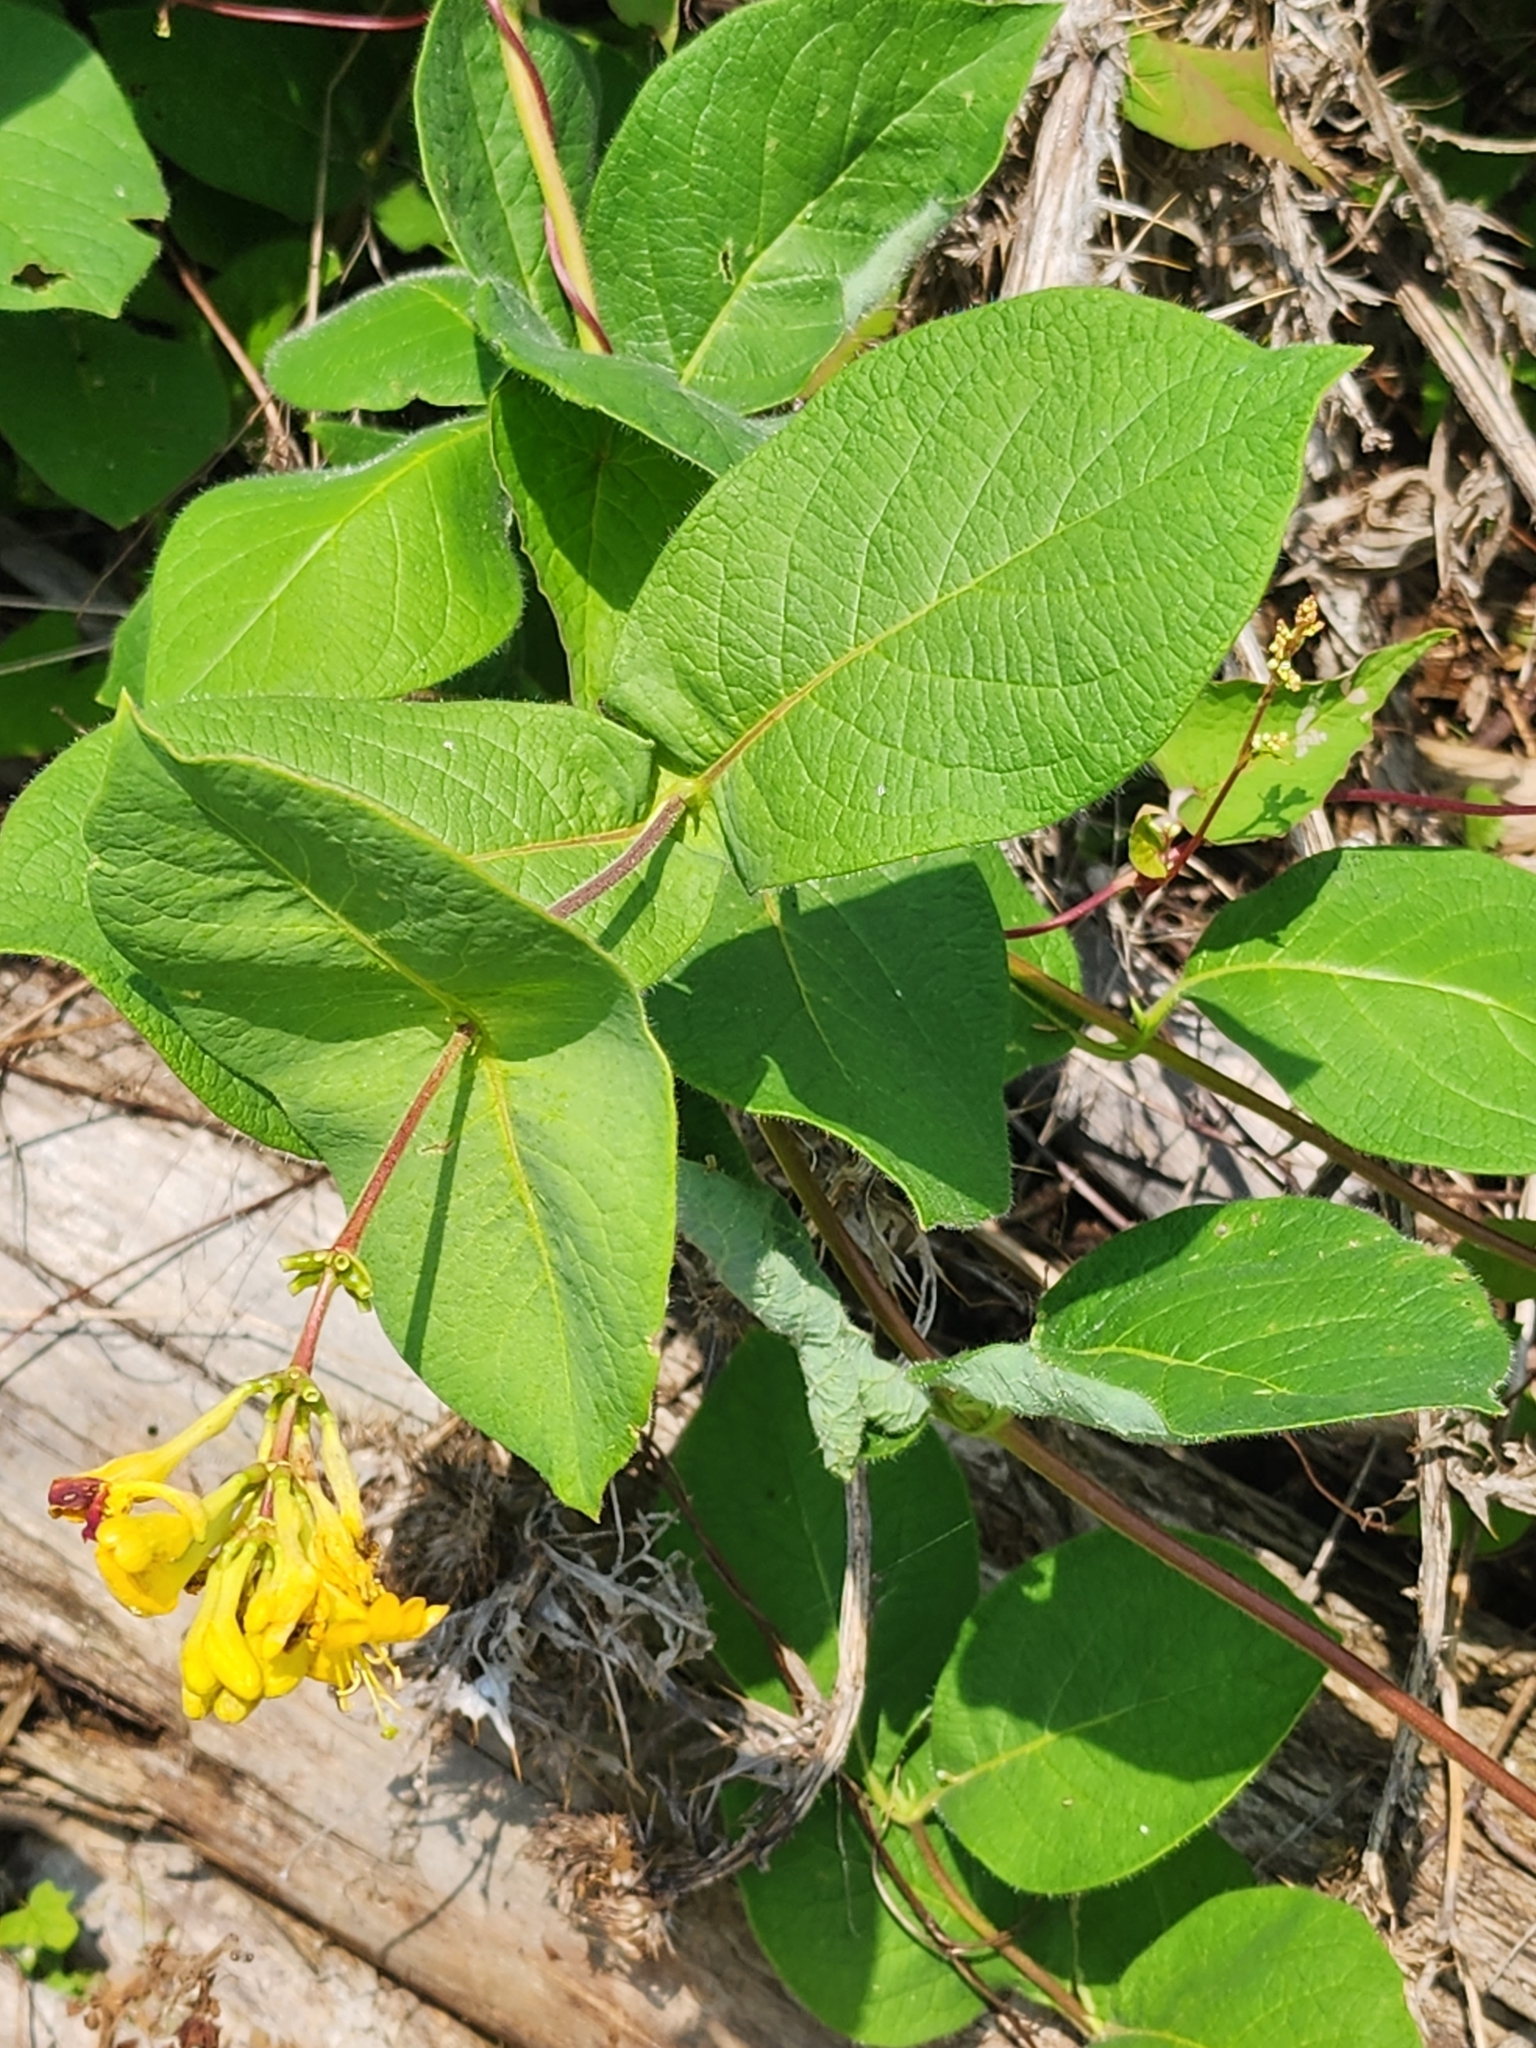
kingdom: Plantae
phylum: Tracheophyta
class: Magnoliopsida
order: Dipsacales
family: Caprifoliaceae
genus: Lonicera
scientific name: Lonicera hirsuta
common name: Hairy honeysuckle
